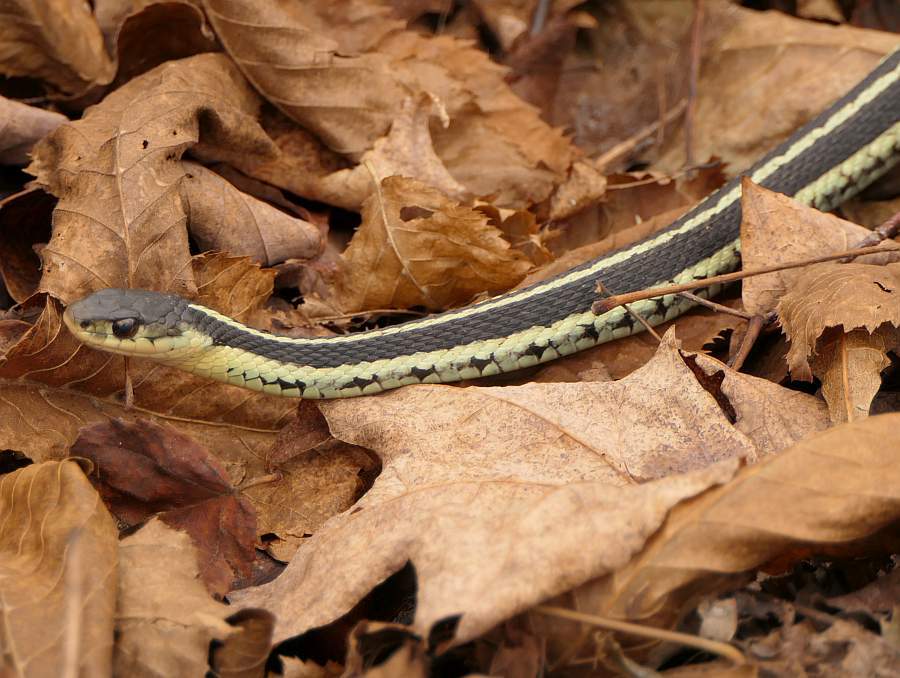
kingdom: Animalia
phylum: Chordata
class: Squamata
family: Colubridae
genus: Thamnophis
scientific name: Thamnophis sirtalis
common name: Common garter snake
